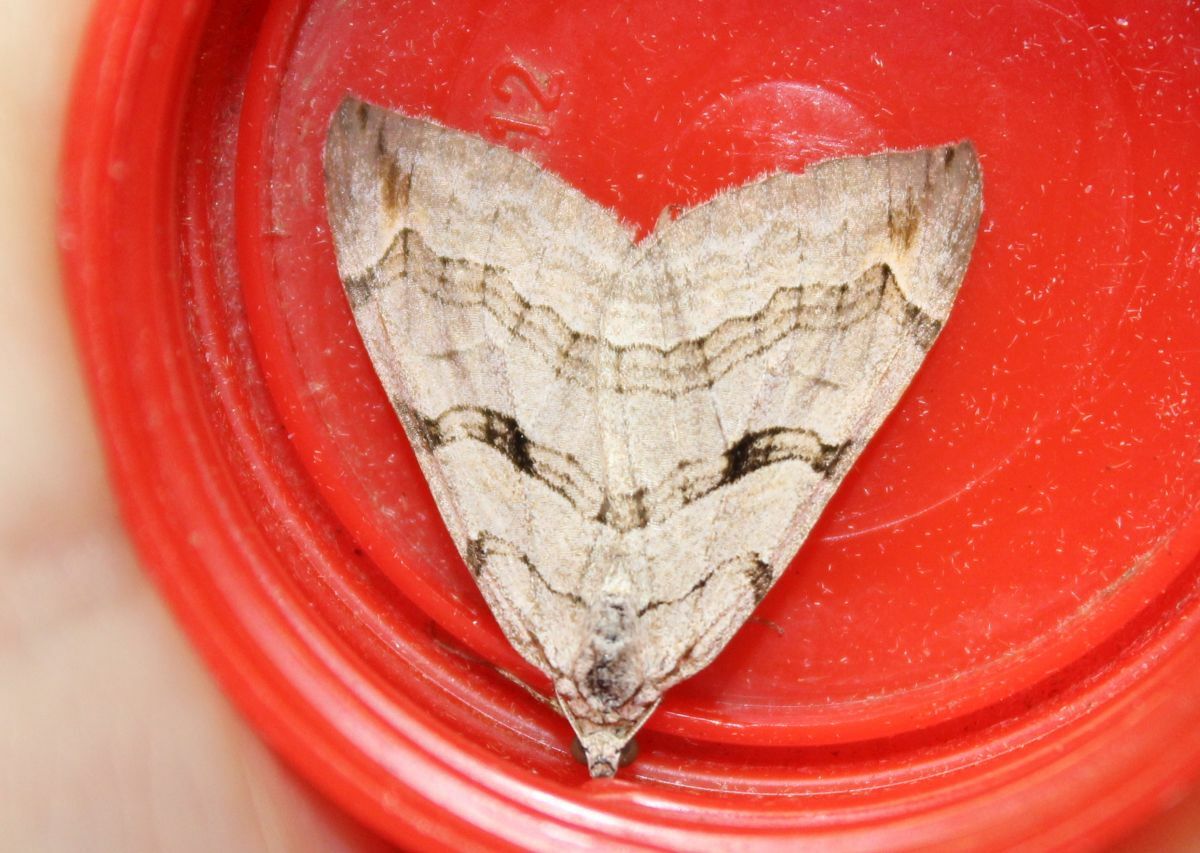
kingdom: Animalia
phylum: Arthropoda
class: Insecta
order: Lepidoptera
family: Geometridae
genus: Aplocera
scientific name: Aplocera plagiata
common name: Treble-bar
